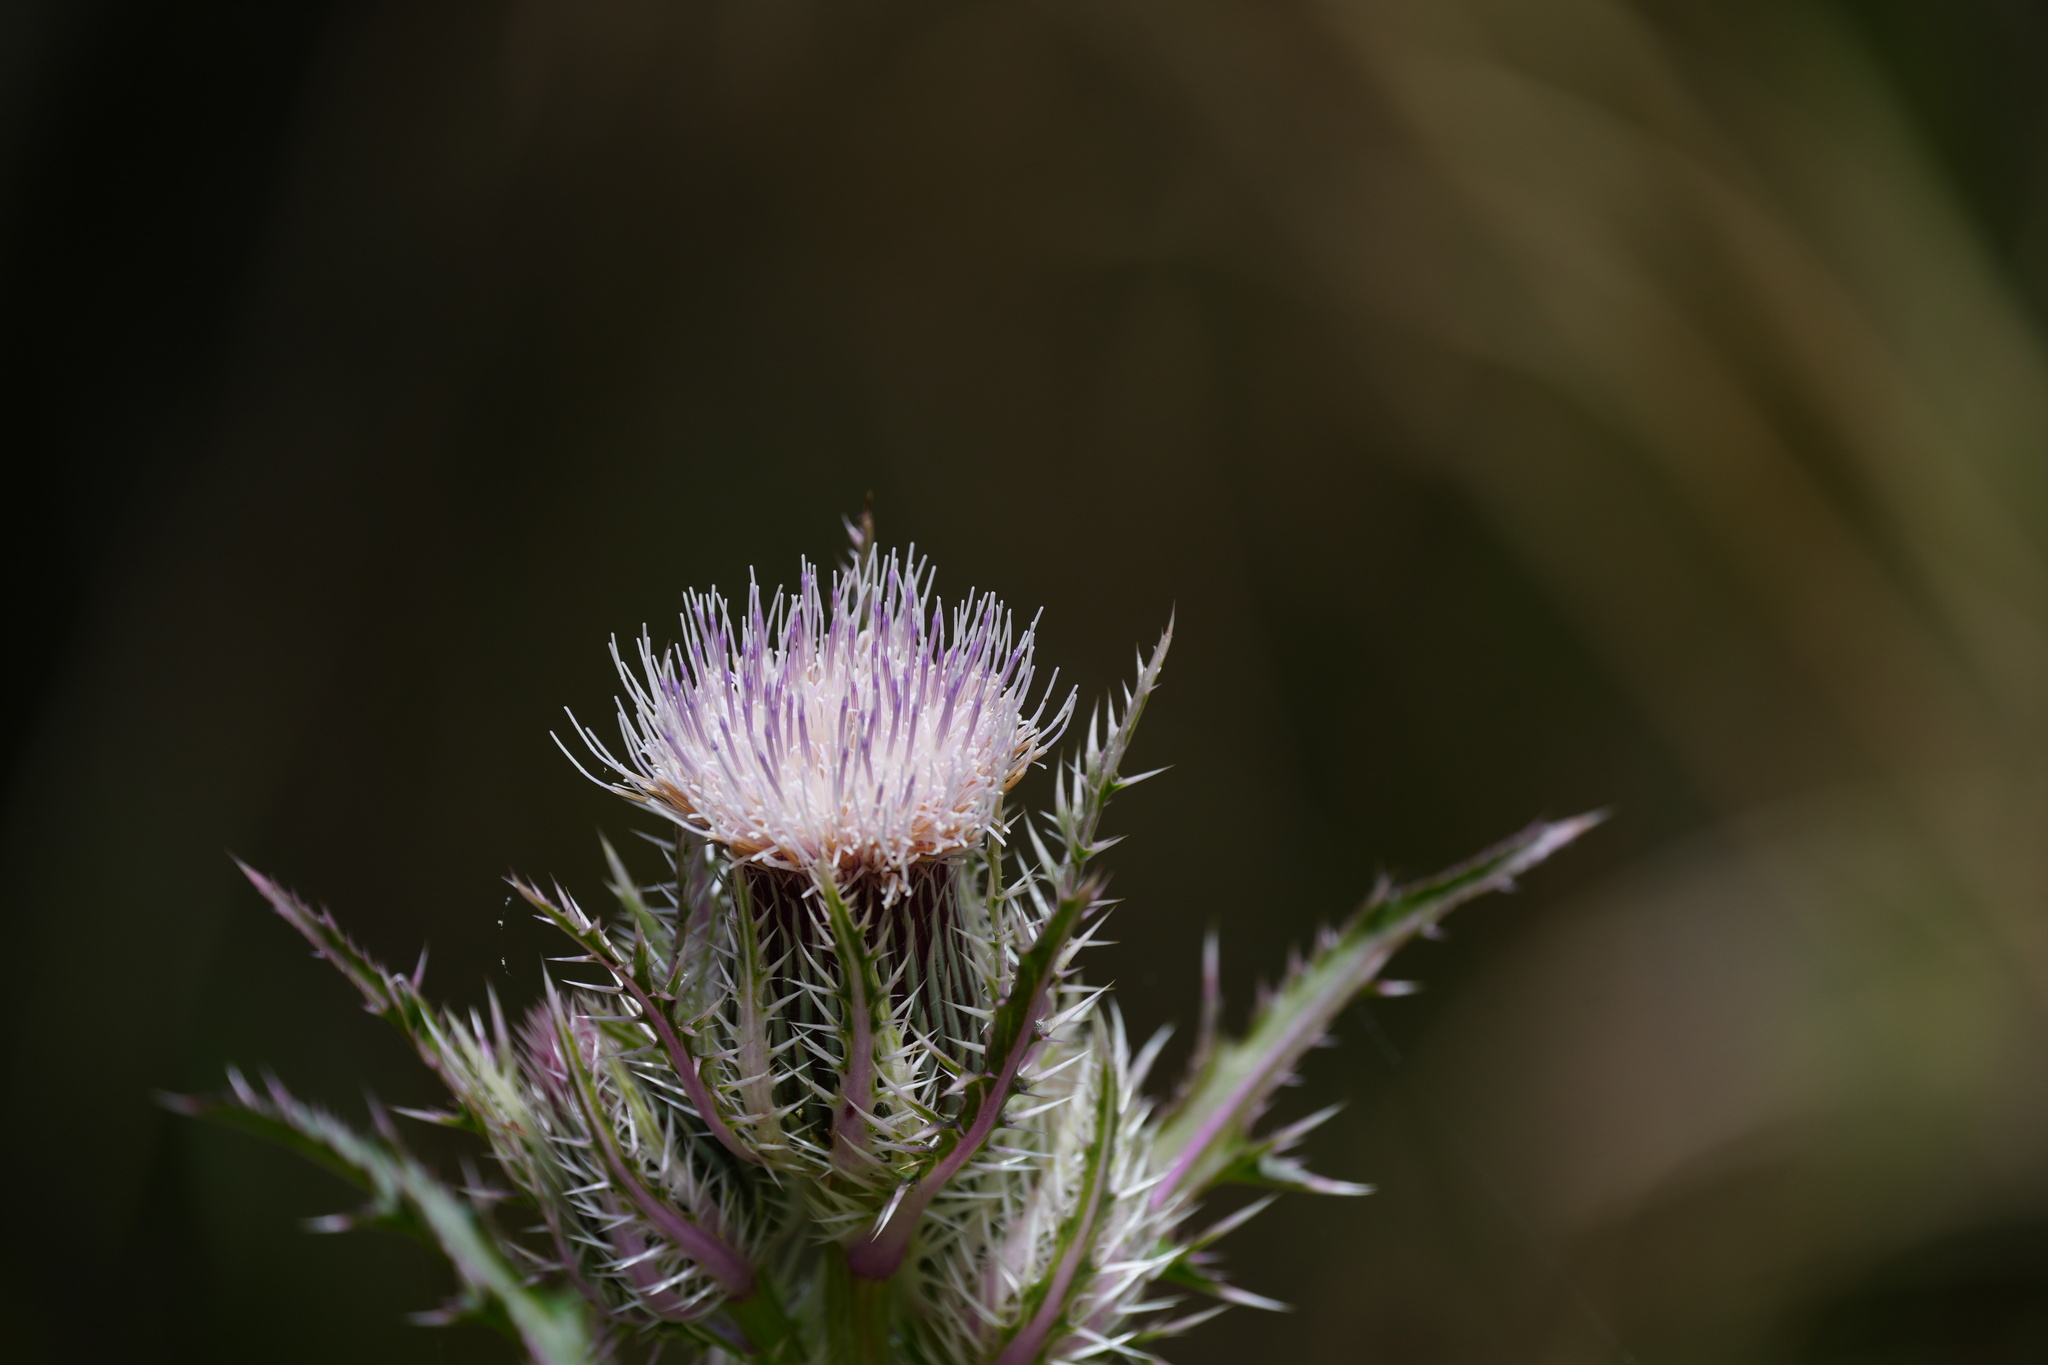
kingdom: Plantae
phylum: Tracheophyta
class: Magnoliopsida
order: Asterales
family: Asteraceae
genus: Cirsium
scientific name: Cirsium horridulum
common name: Bristly thistle
